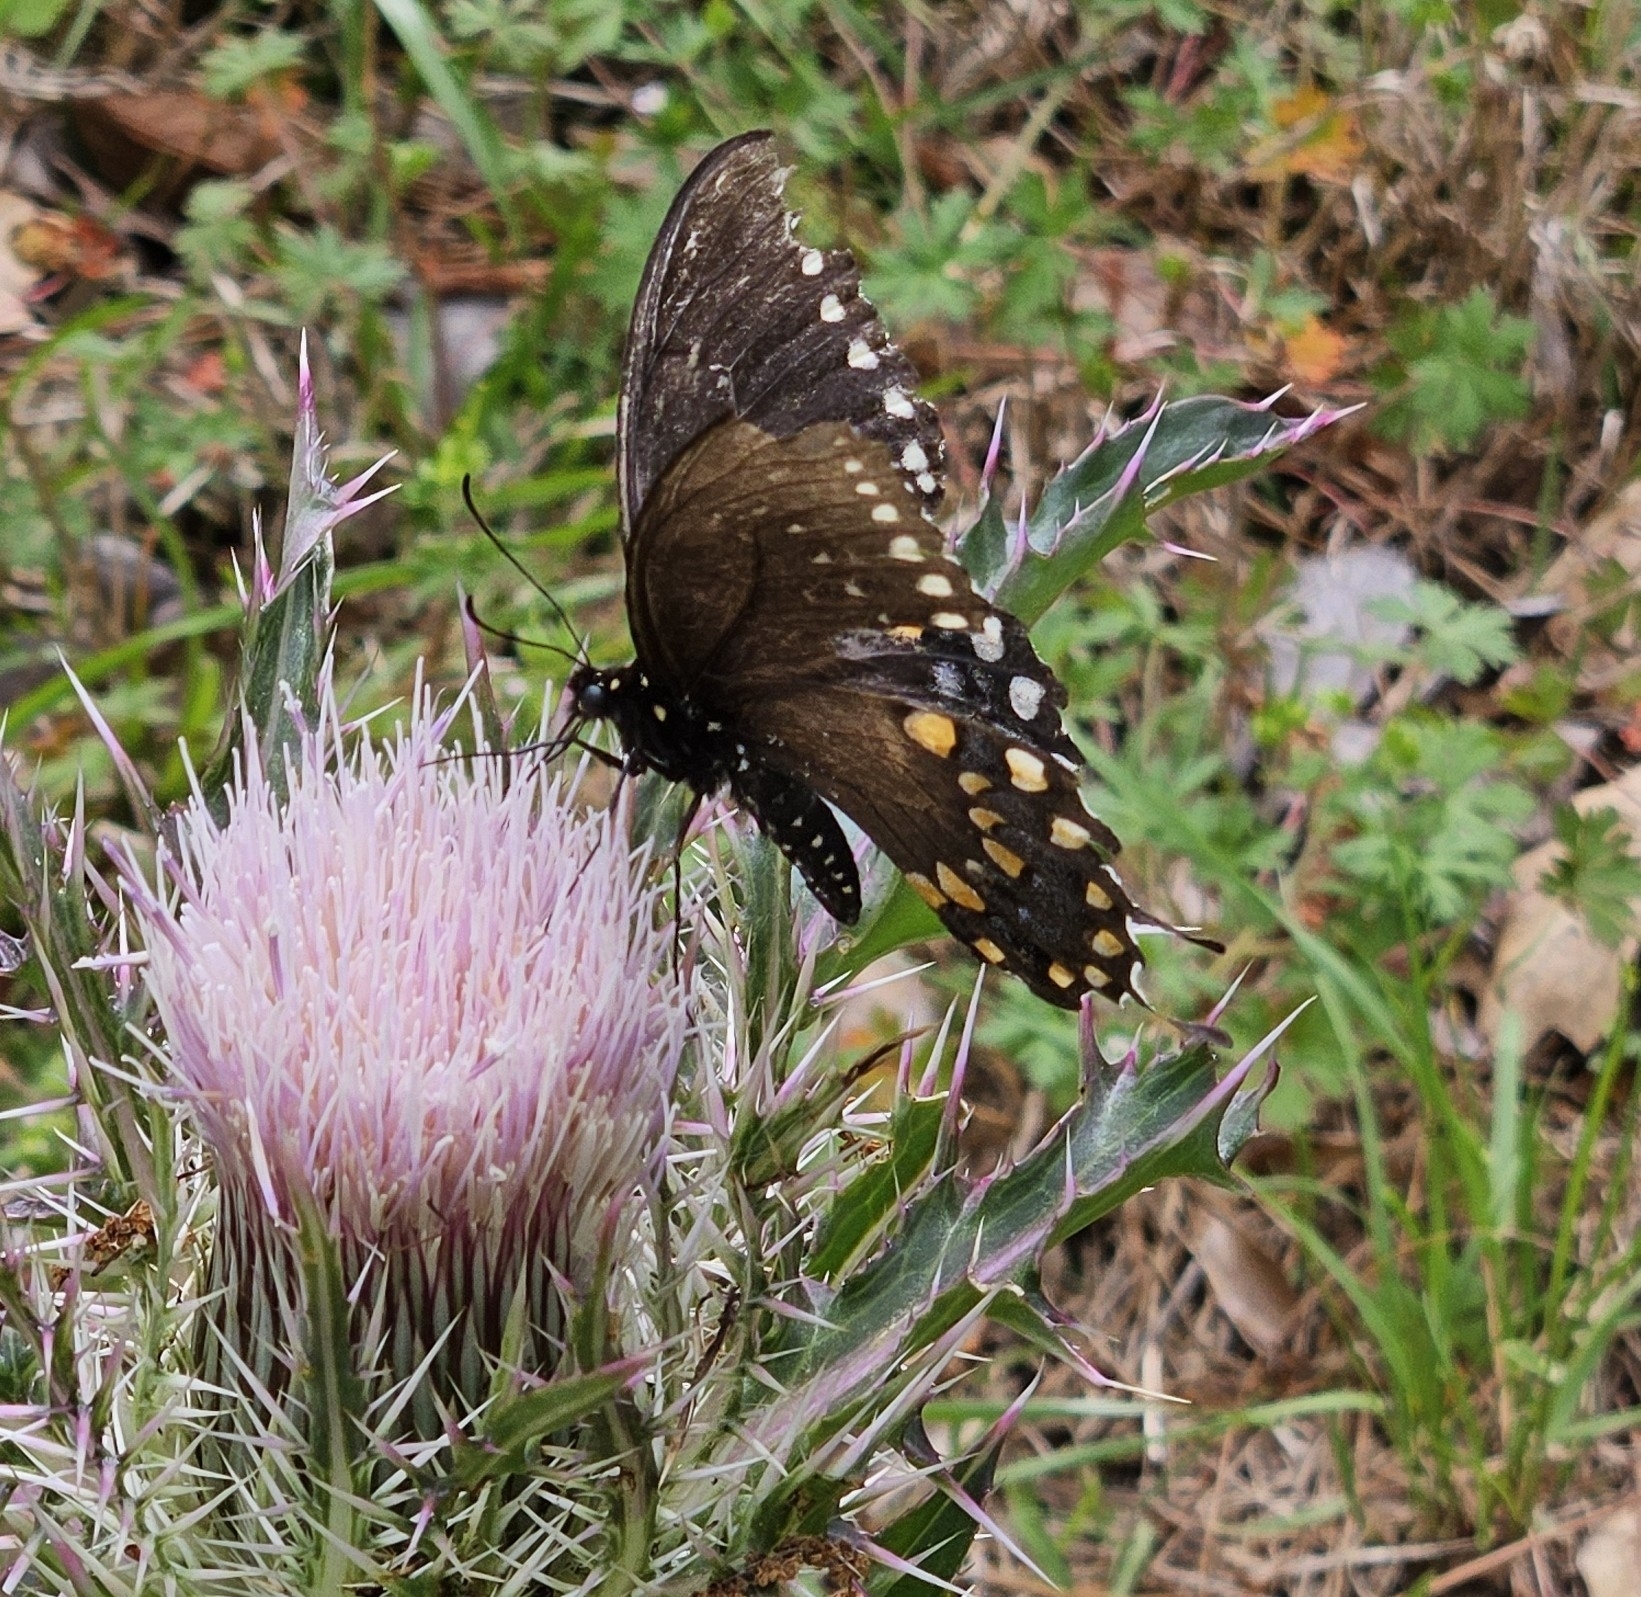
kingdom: Animalia
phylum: Arthropoda
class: Insecta
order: Lepidoptera
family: Papilionidae
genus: Papilio
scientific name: Papilio troilus
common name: Spicebush swallowtail
